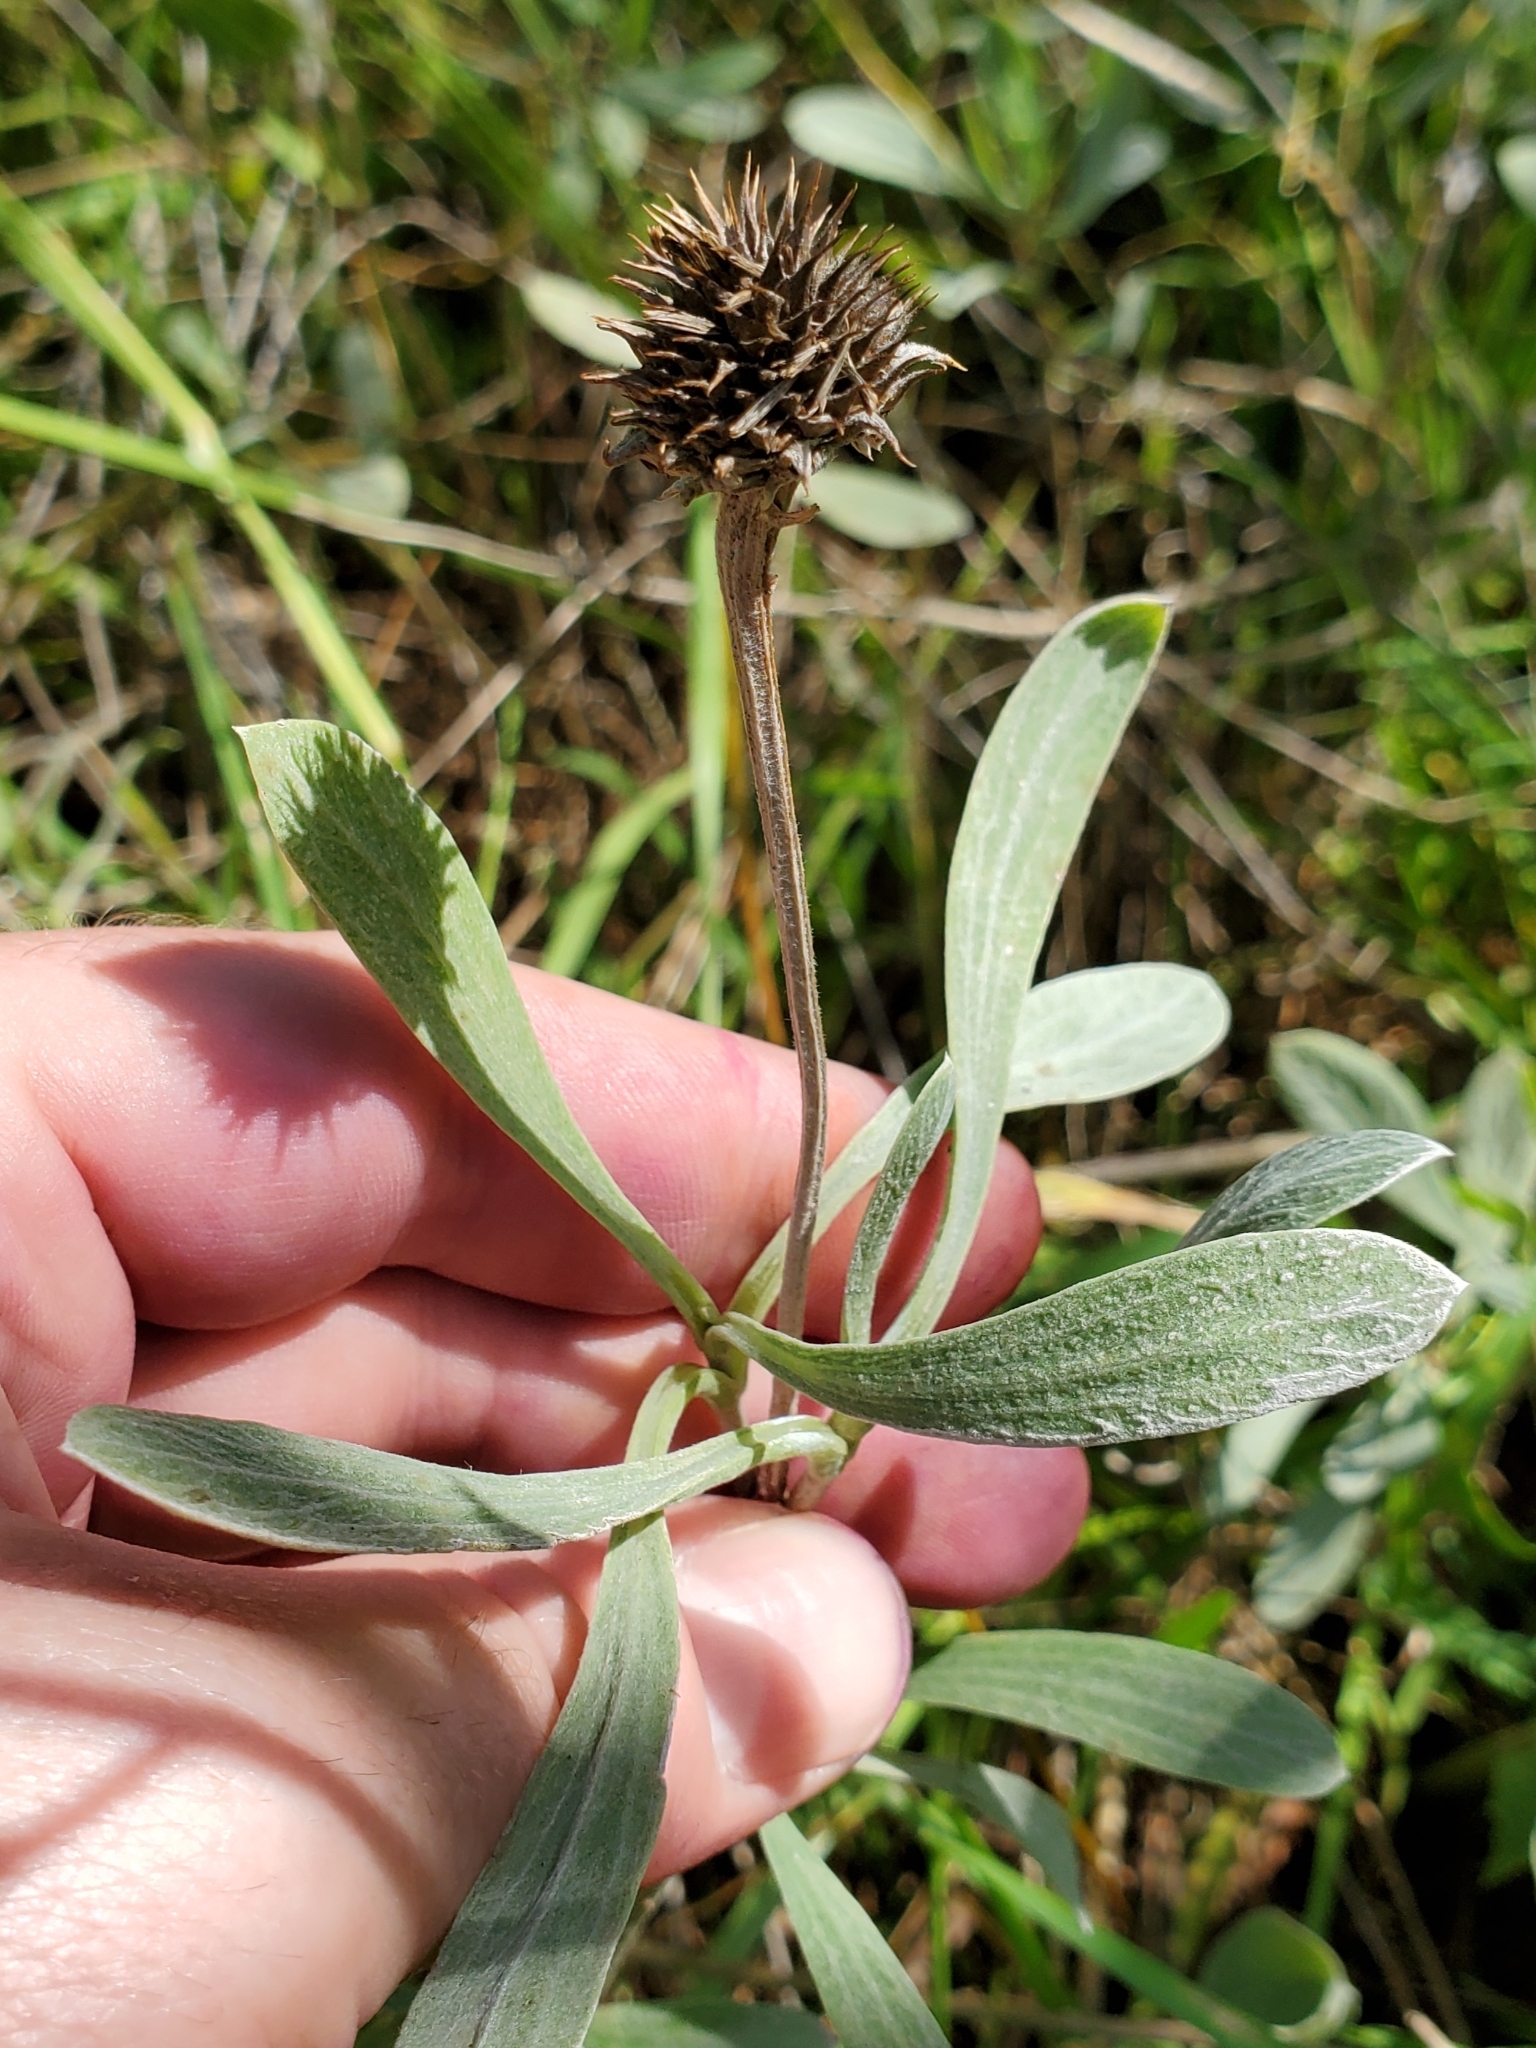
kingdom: Plantae
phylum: Tracheophyta
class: Magnoliopsida
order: Asterales
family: Asteraceae
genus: Borrichia
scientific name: Borrichia frutescens
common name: Sea oxeye
